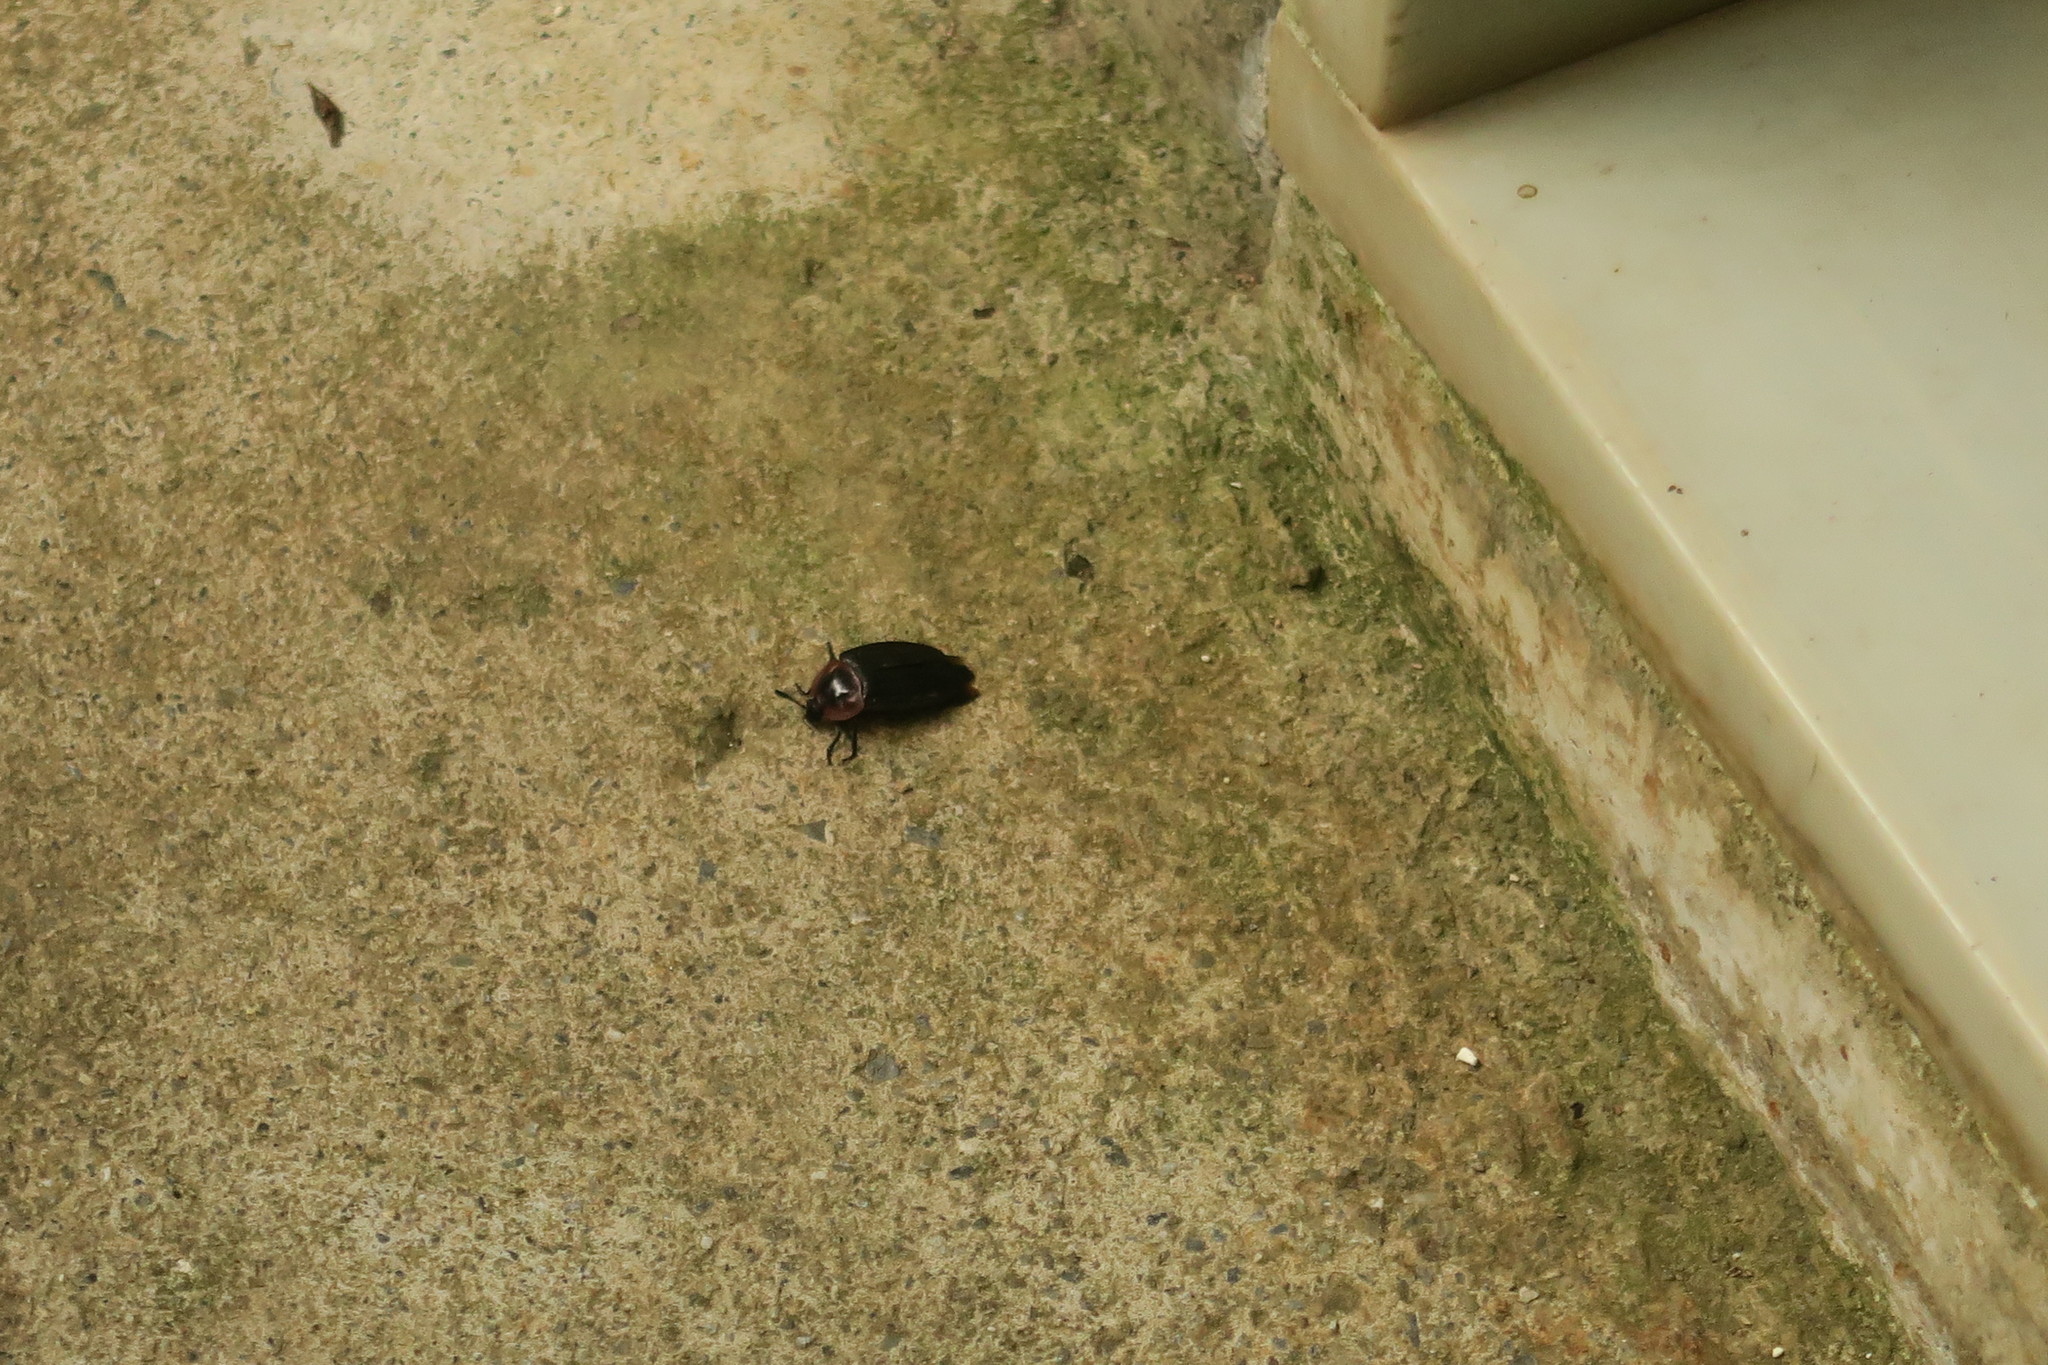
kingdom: Animalia
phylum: Arthropoda
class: Insecta
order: Coleoptera
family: Staphylinidae
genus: Necrophila
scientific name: Necrophila brunnicollis
